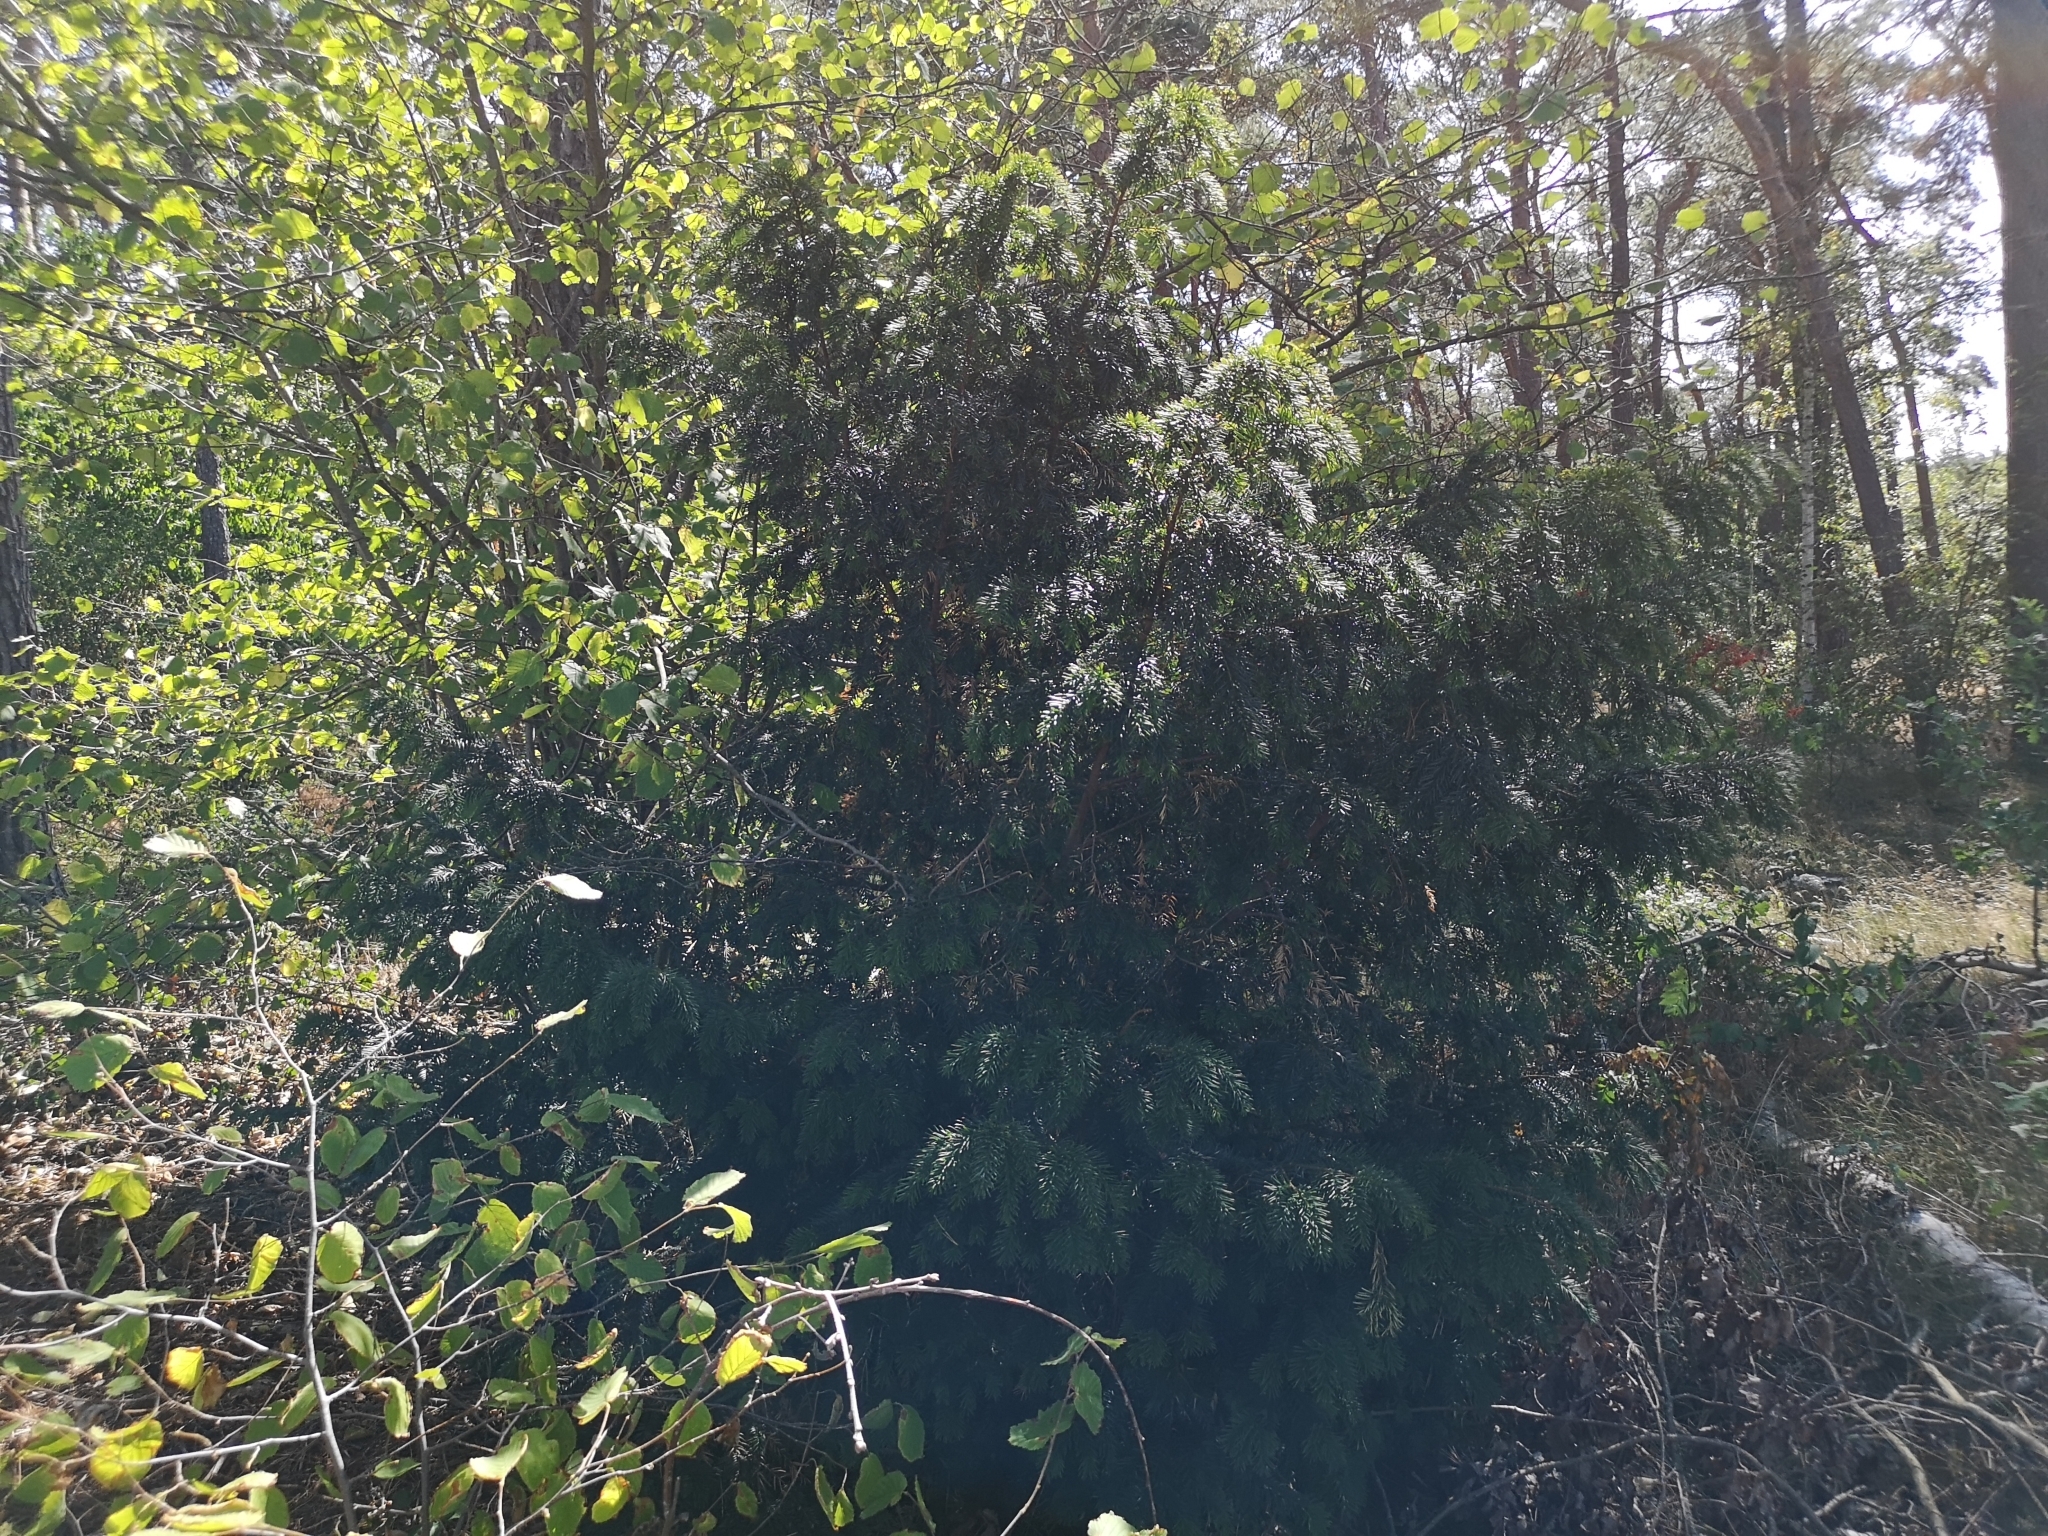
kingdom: Plantae
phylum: Tracheophyta
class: Pinopsida
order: Pinales
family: Taxaceae
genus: Taxus
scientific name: Taxus baccata
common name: Yew
